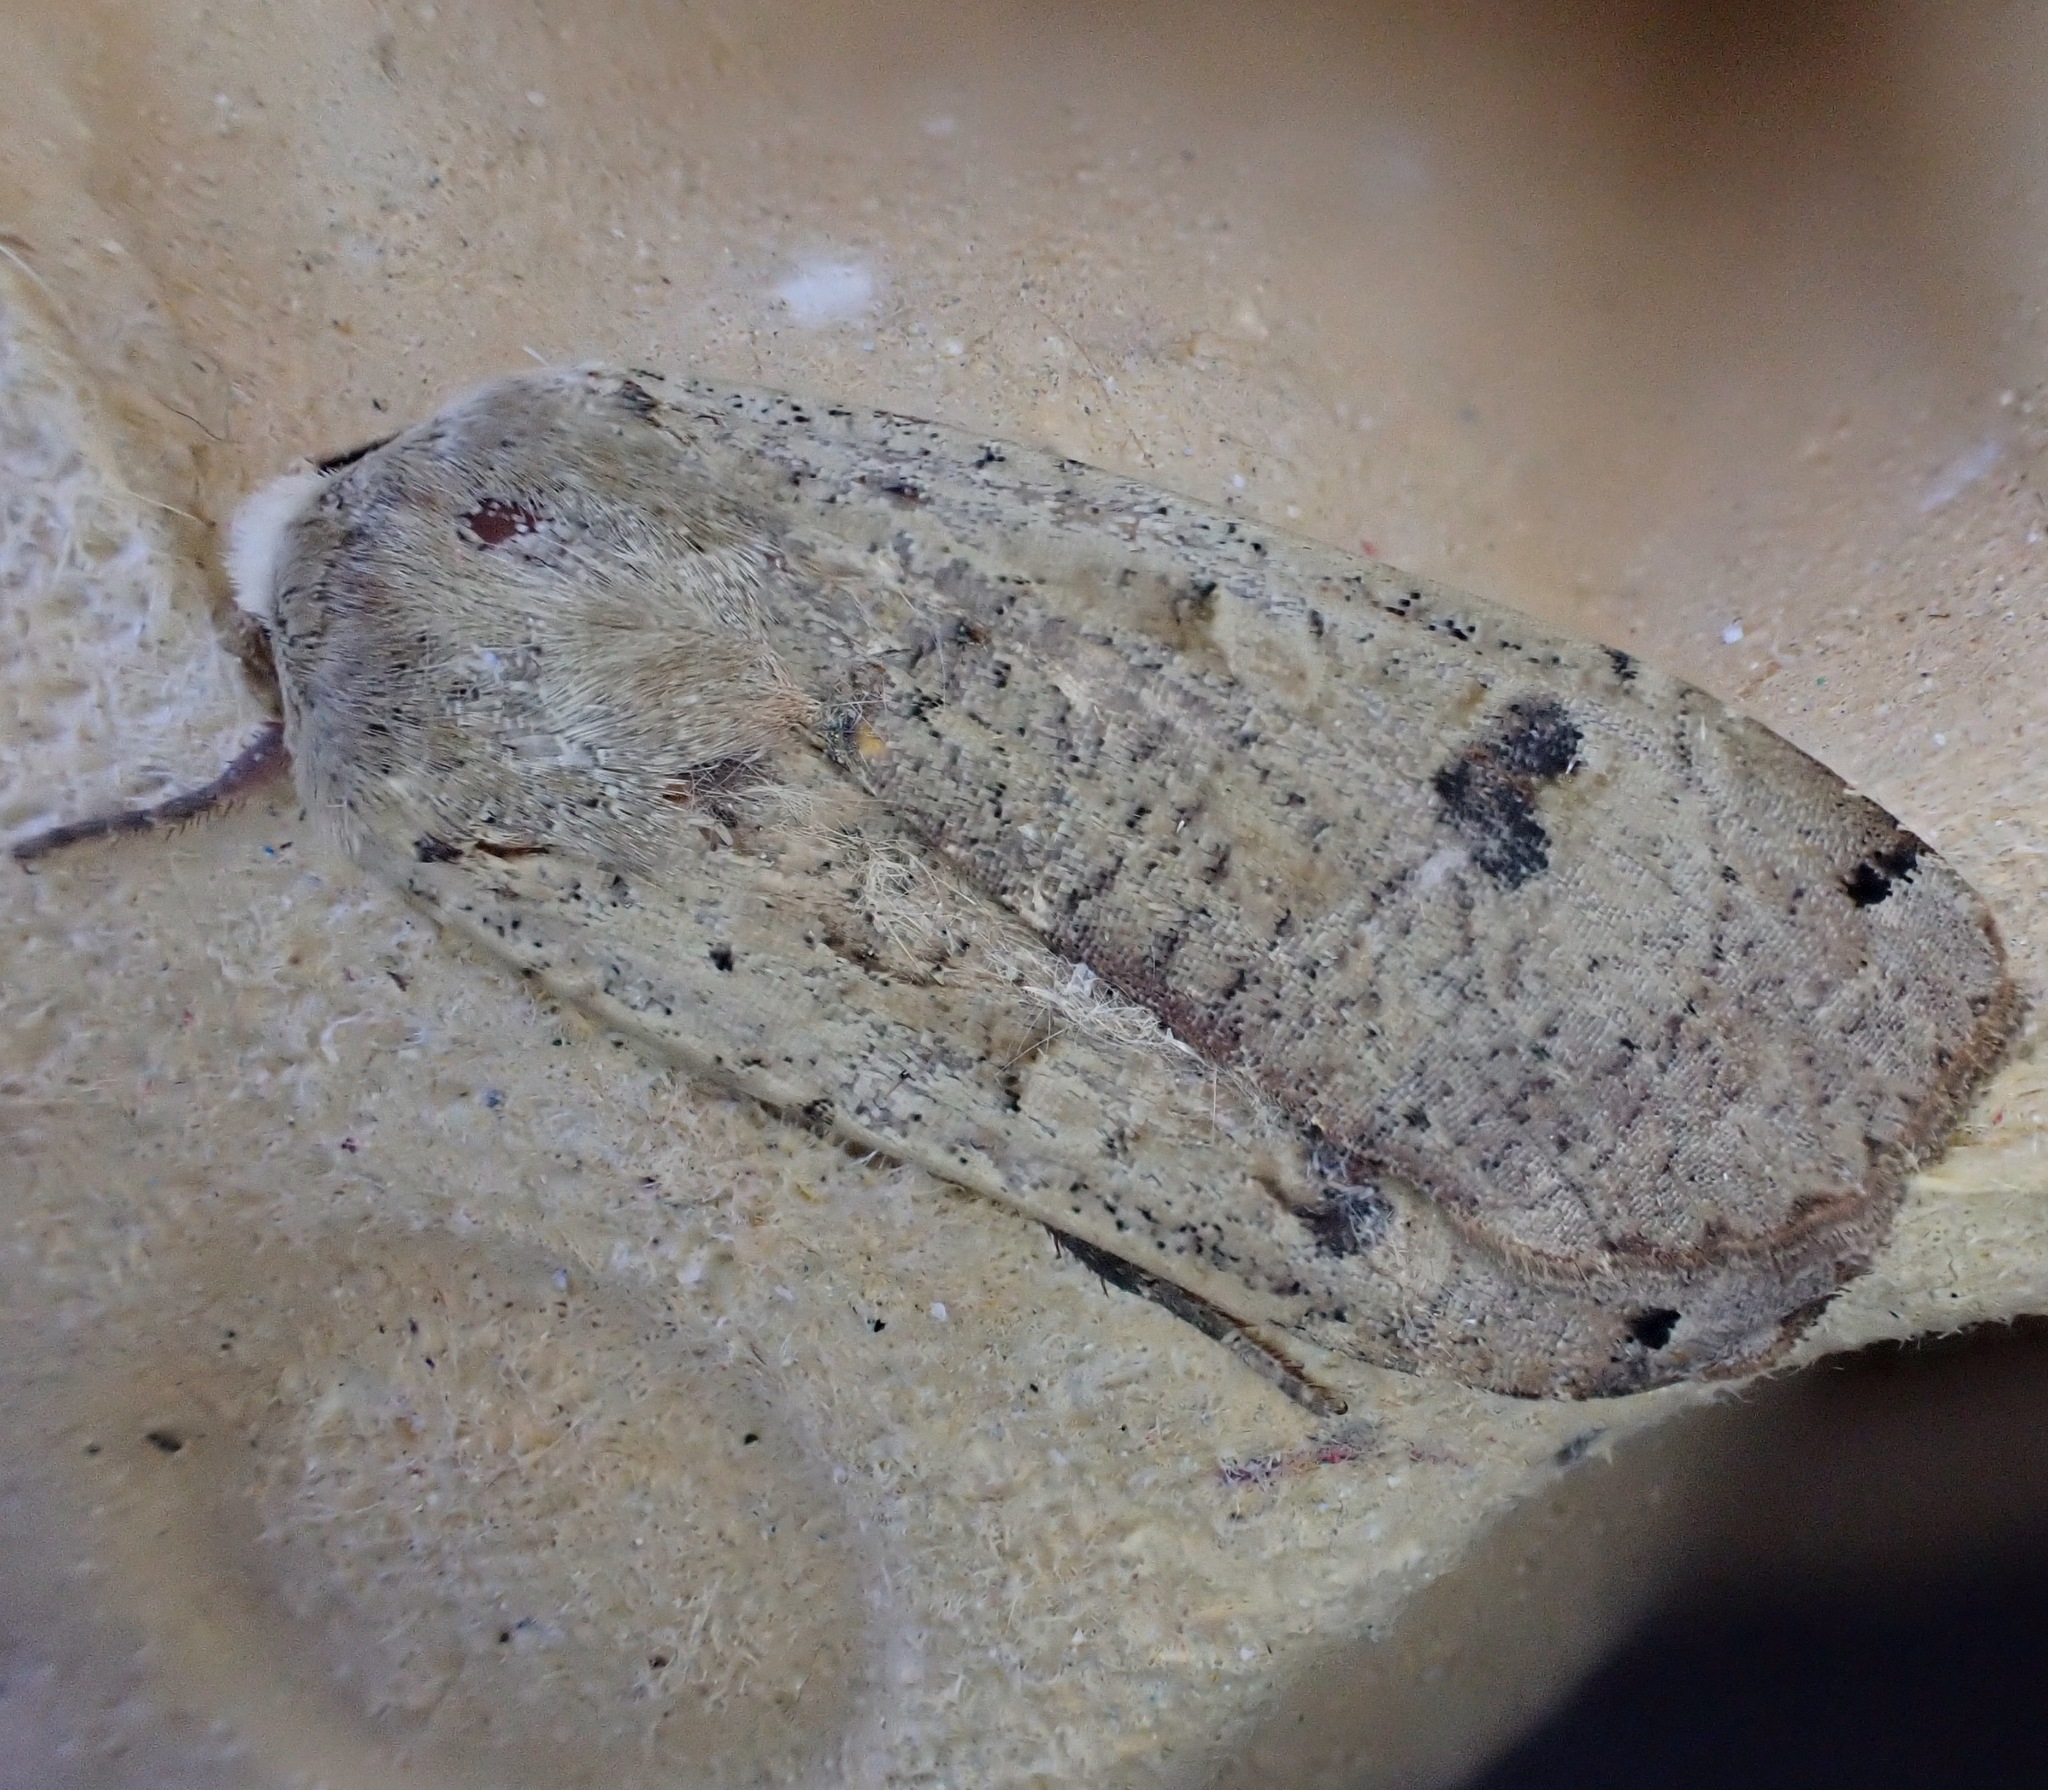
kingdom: Animalia
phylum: Arthropoda
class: Insecta
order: Lepidoptera
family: Noctuidae
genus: Noctua
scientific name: Noctua pronuba
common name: Large yellow underwing
